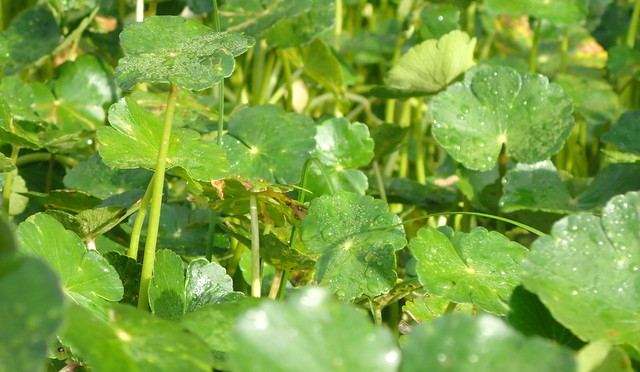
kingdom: Plantae
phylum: Tracheophyta
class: Magnoliopsida
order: Apiales
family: Araliaceae
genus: Hydrocotyle
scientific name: Hydrocotyle ranunculoides
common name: Floating pennywort
